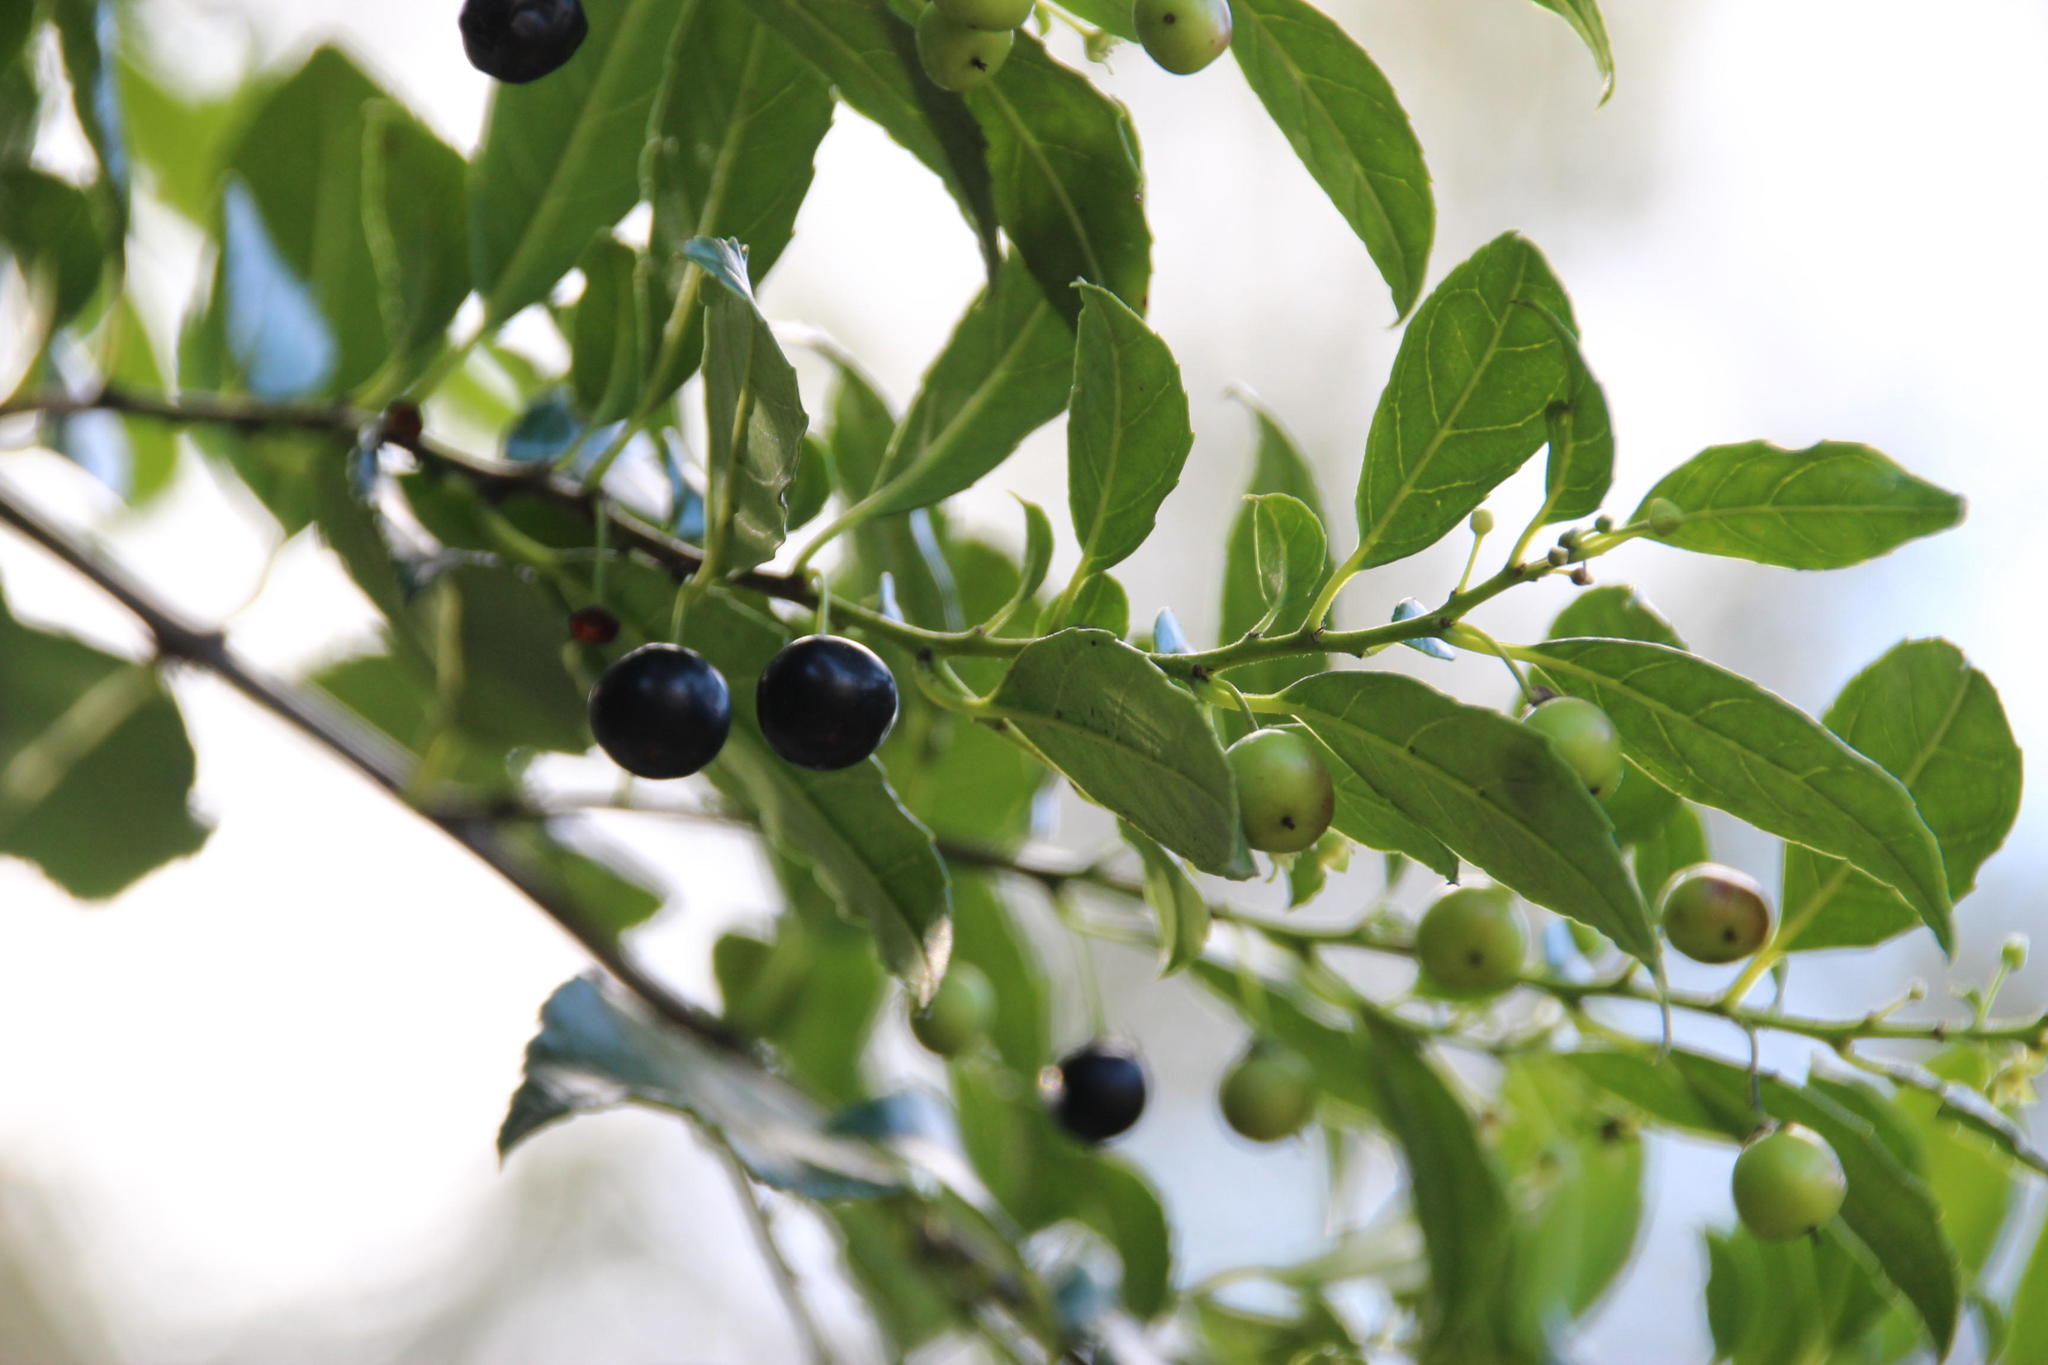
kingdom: Plantae
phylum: Tracheophyta
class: Magnoliopsida
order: Rosales
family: Rhamnaceae
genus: Rhamnus
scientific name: Rhamnus prinoides
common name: Dogwood
